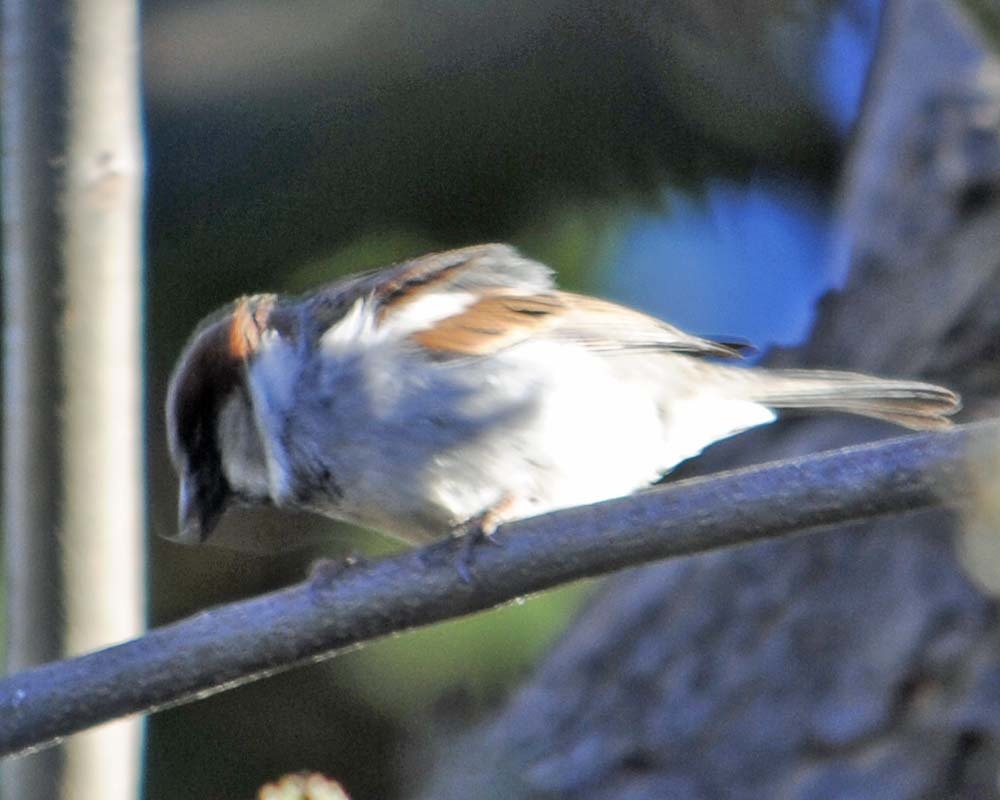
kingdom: Animalia
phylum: Chordata
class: Aves
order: Passeriformes
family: Passeridae
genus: Passer
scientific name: Passer domesticus
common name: House sparrow
